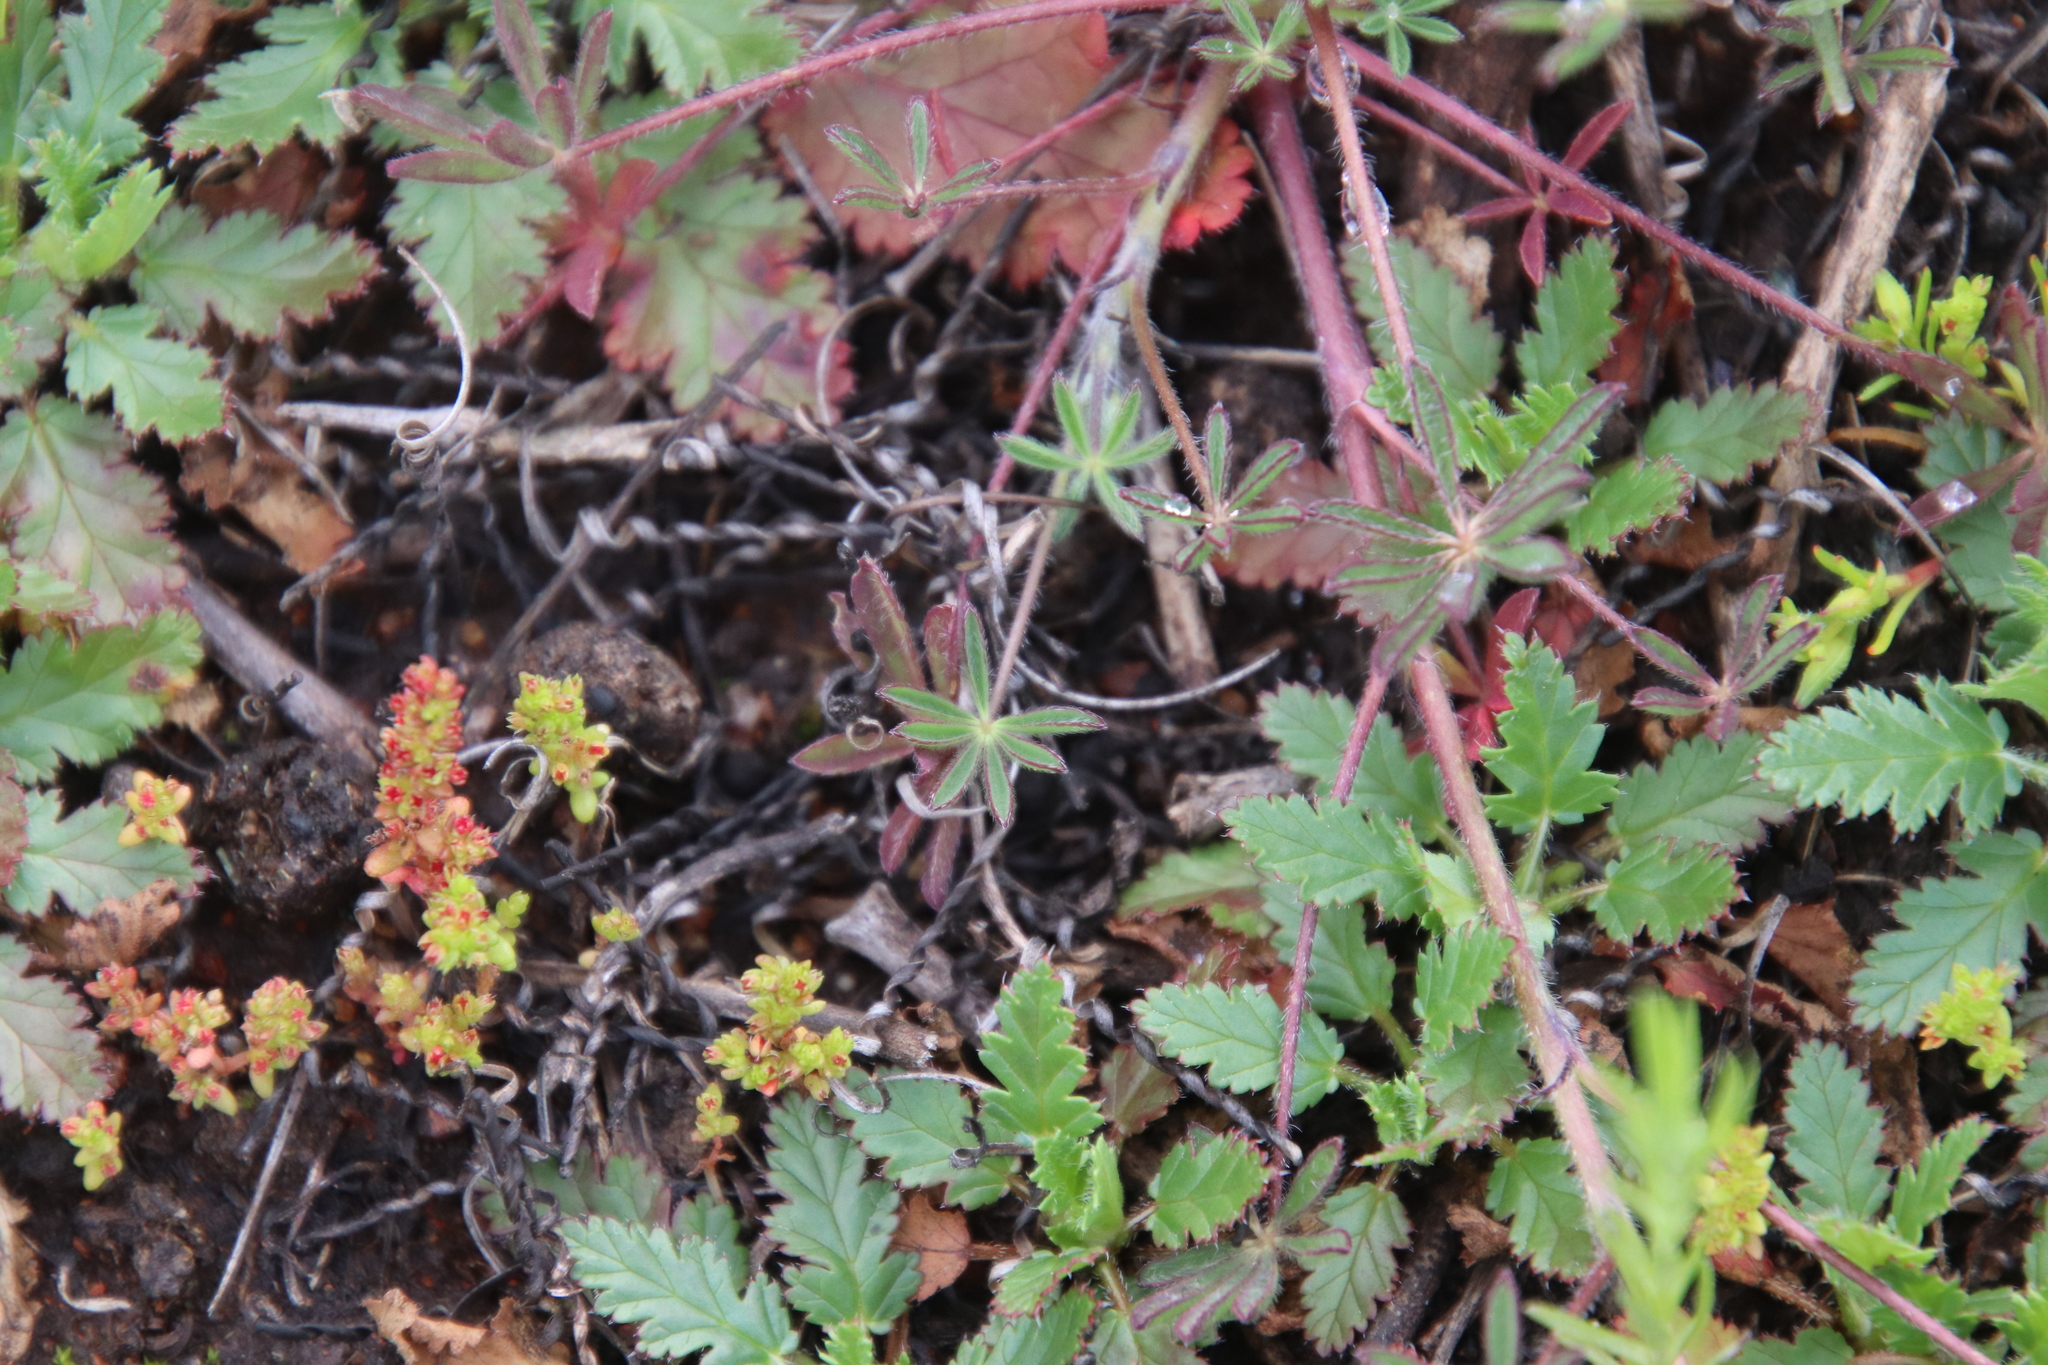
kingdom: Plantae
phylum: Tracheophyta
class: Magnoliopsida
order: Fabales
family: Fabaceae
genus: Lupinus
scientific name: Lupinus bicolor
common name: Miniature lupine
